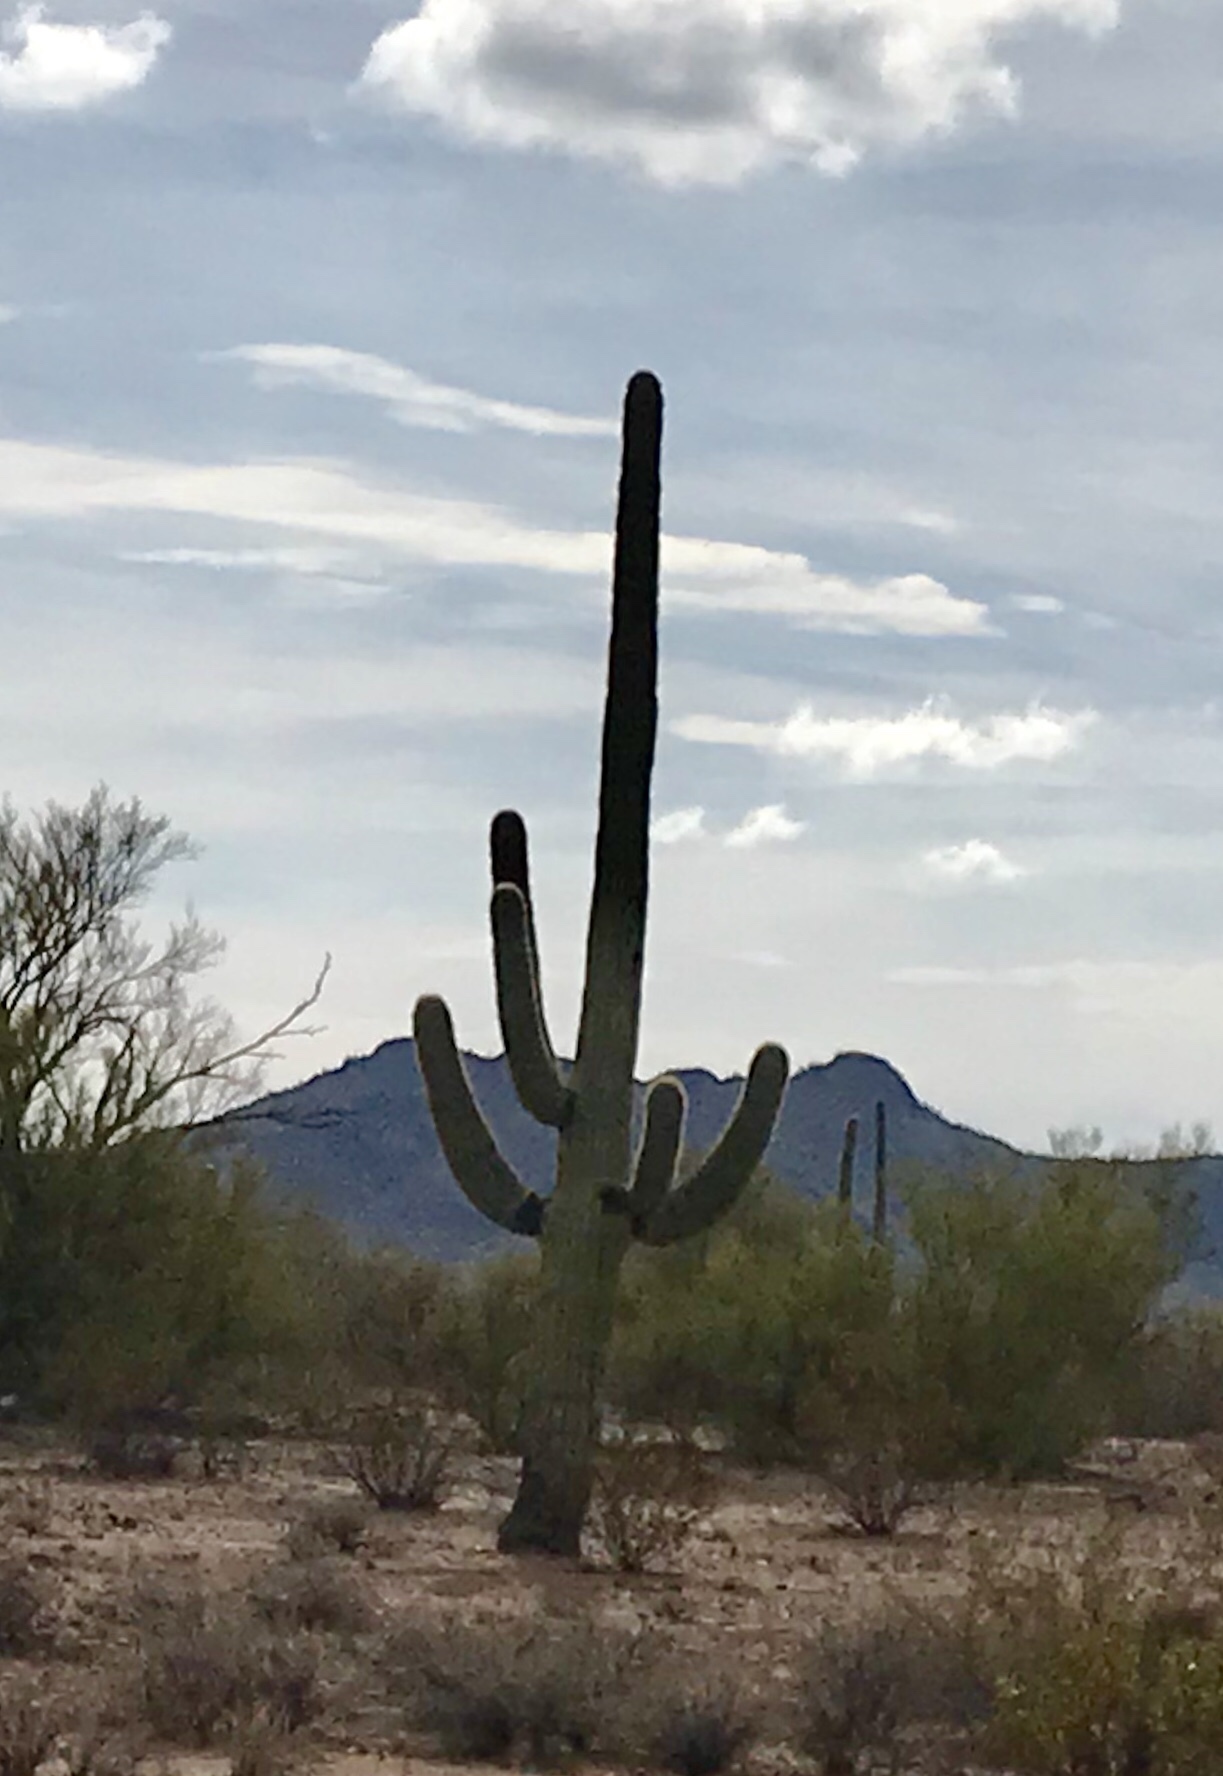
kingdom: Plantae
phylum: Tracheophyta
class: Magnoliopsida
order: Caryophyllales
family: Cactaceae
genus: Carnegiea
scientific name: Carnegiea gigantea
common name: Saguaro
